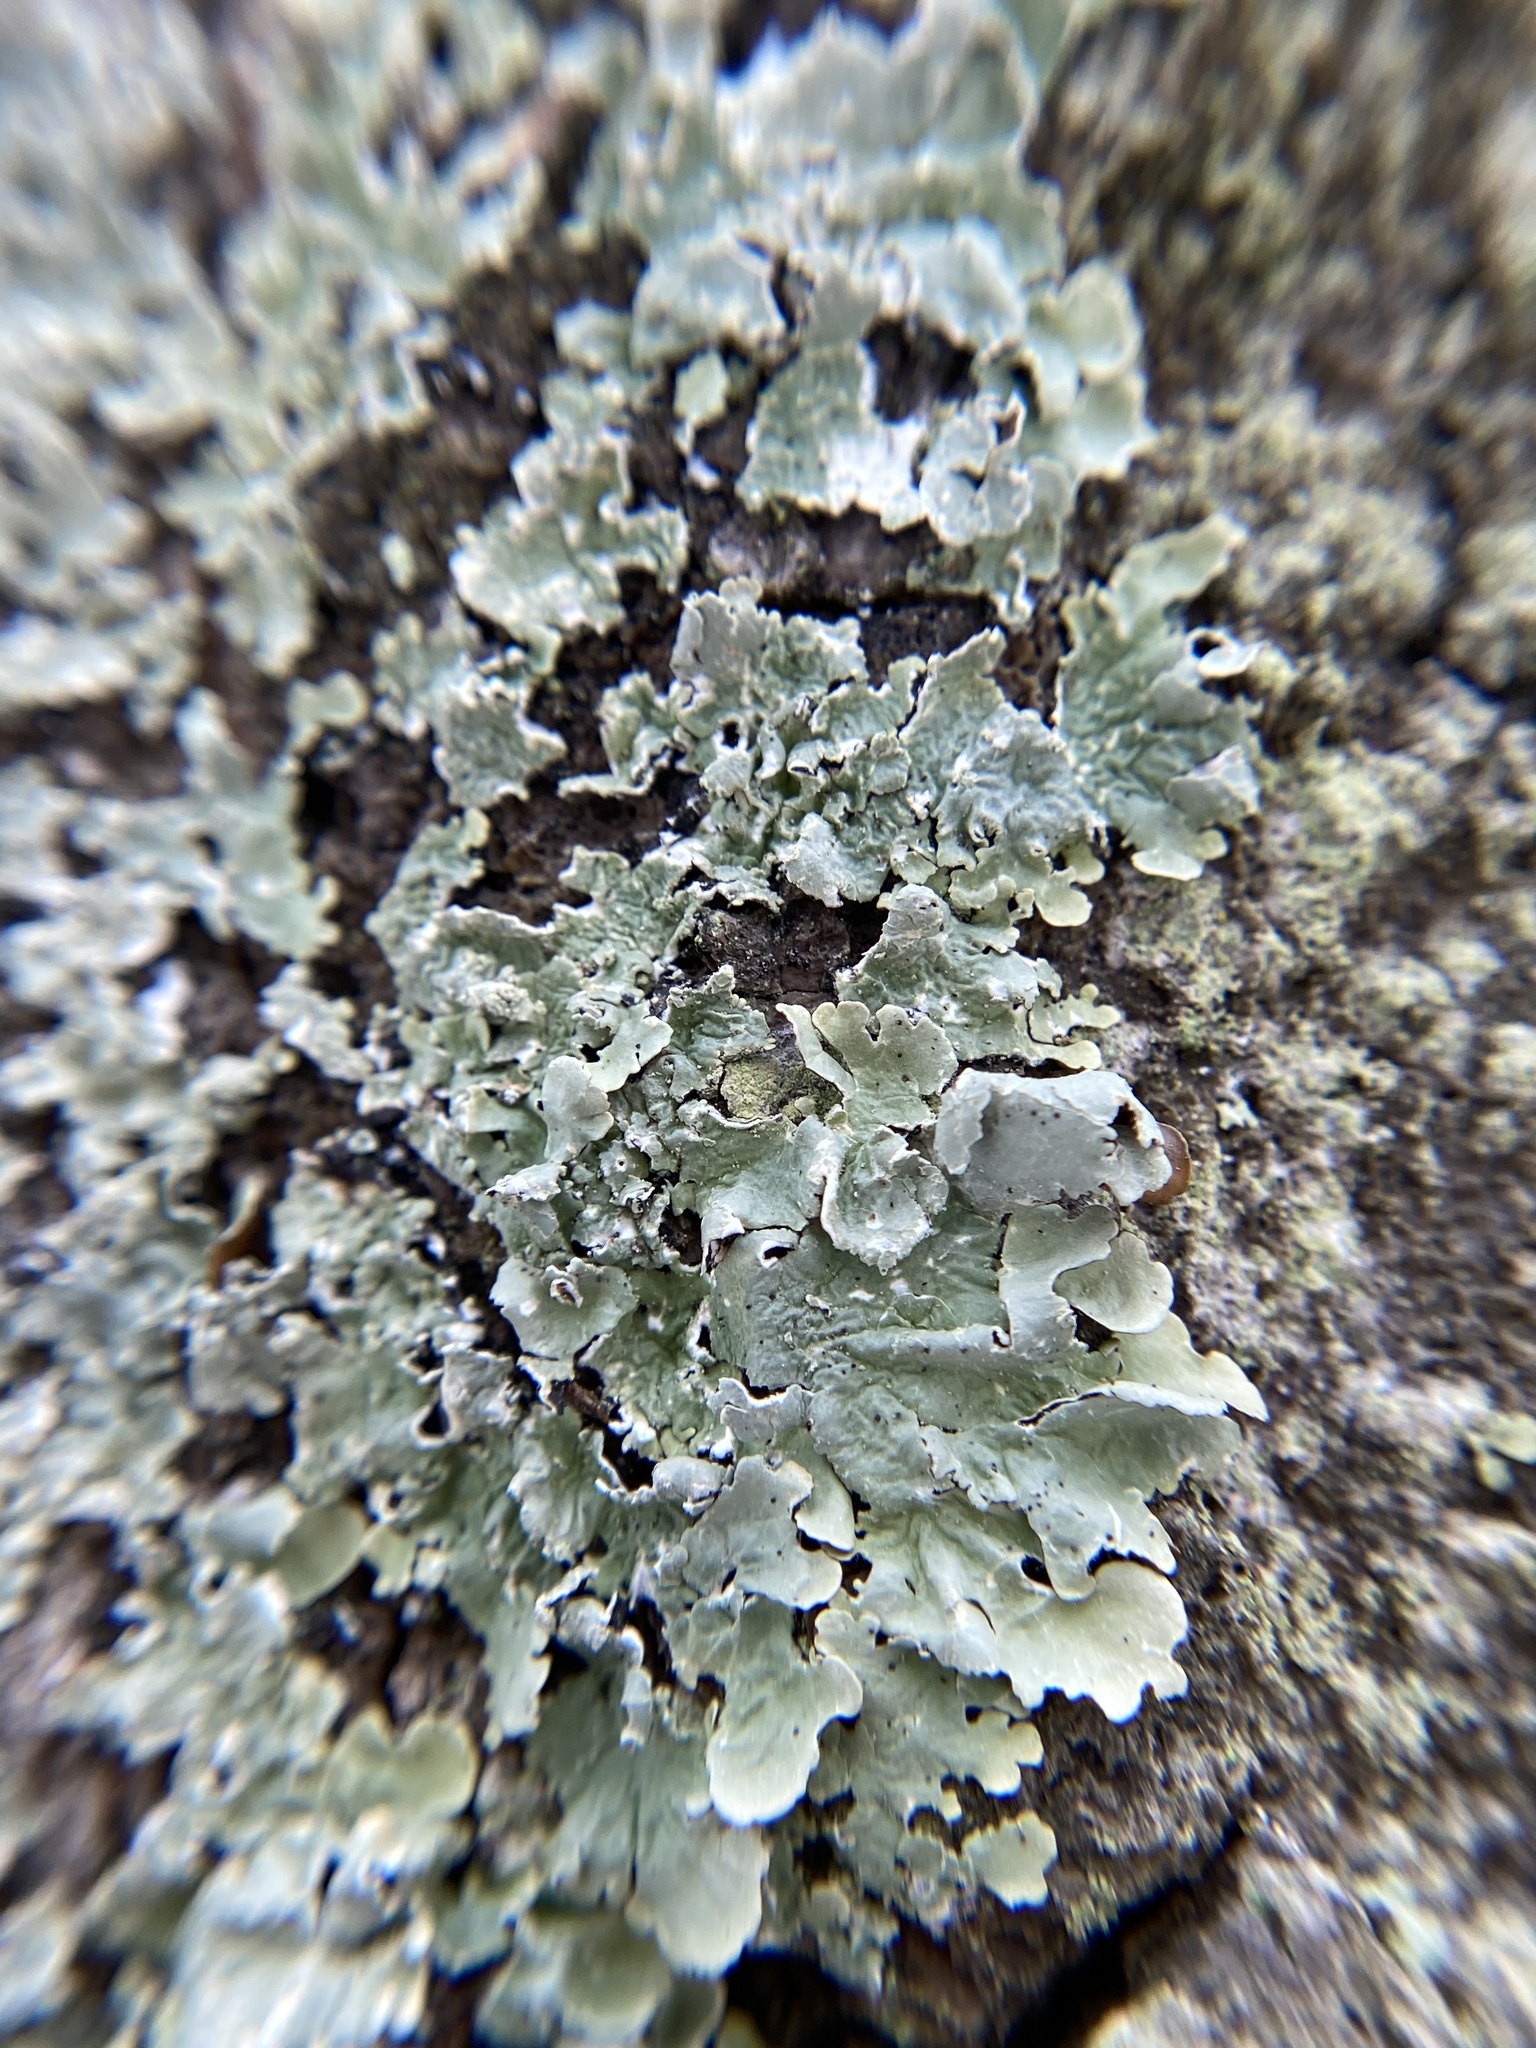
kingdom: Fungi
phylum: Ascomycota
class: Lecanoromycetes
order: Lecanorales
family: Parmeliaceae
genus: Flavoparmelia
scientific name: Flavoparmelia caperata
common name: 40-mile per hour lichen
